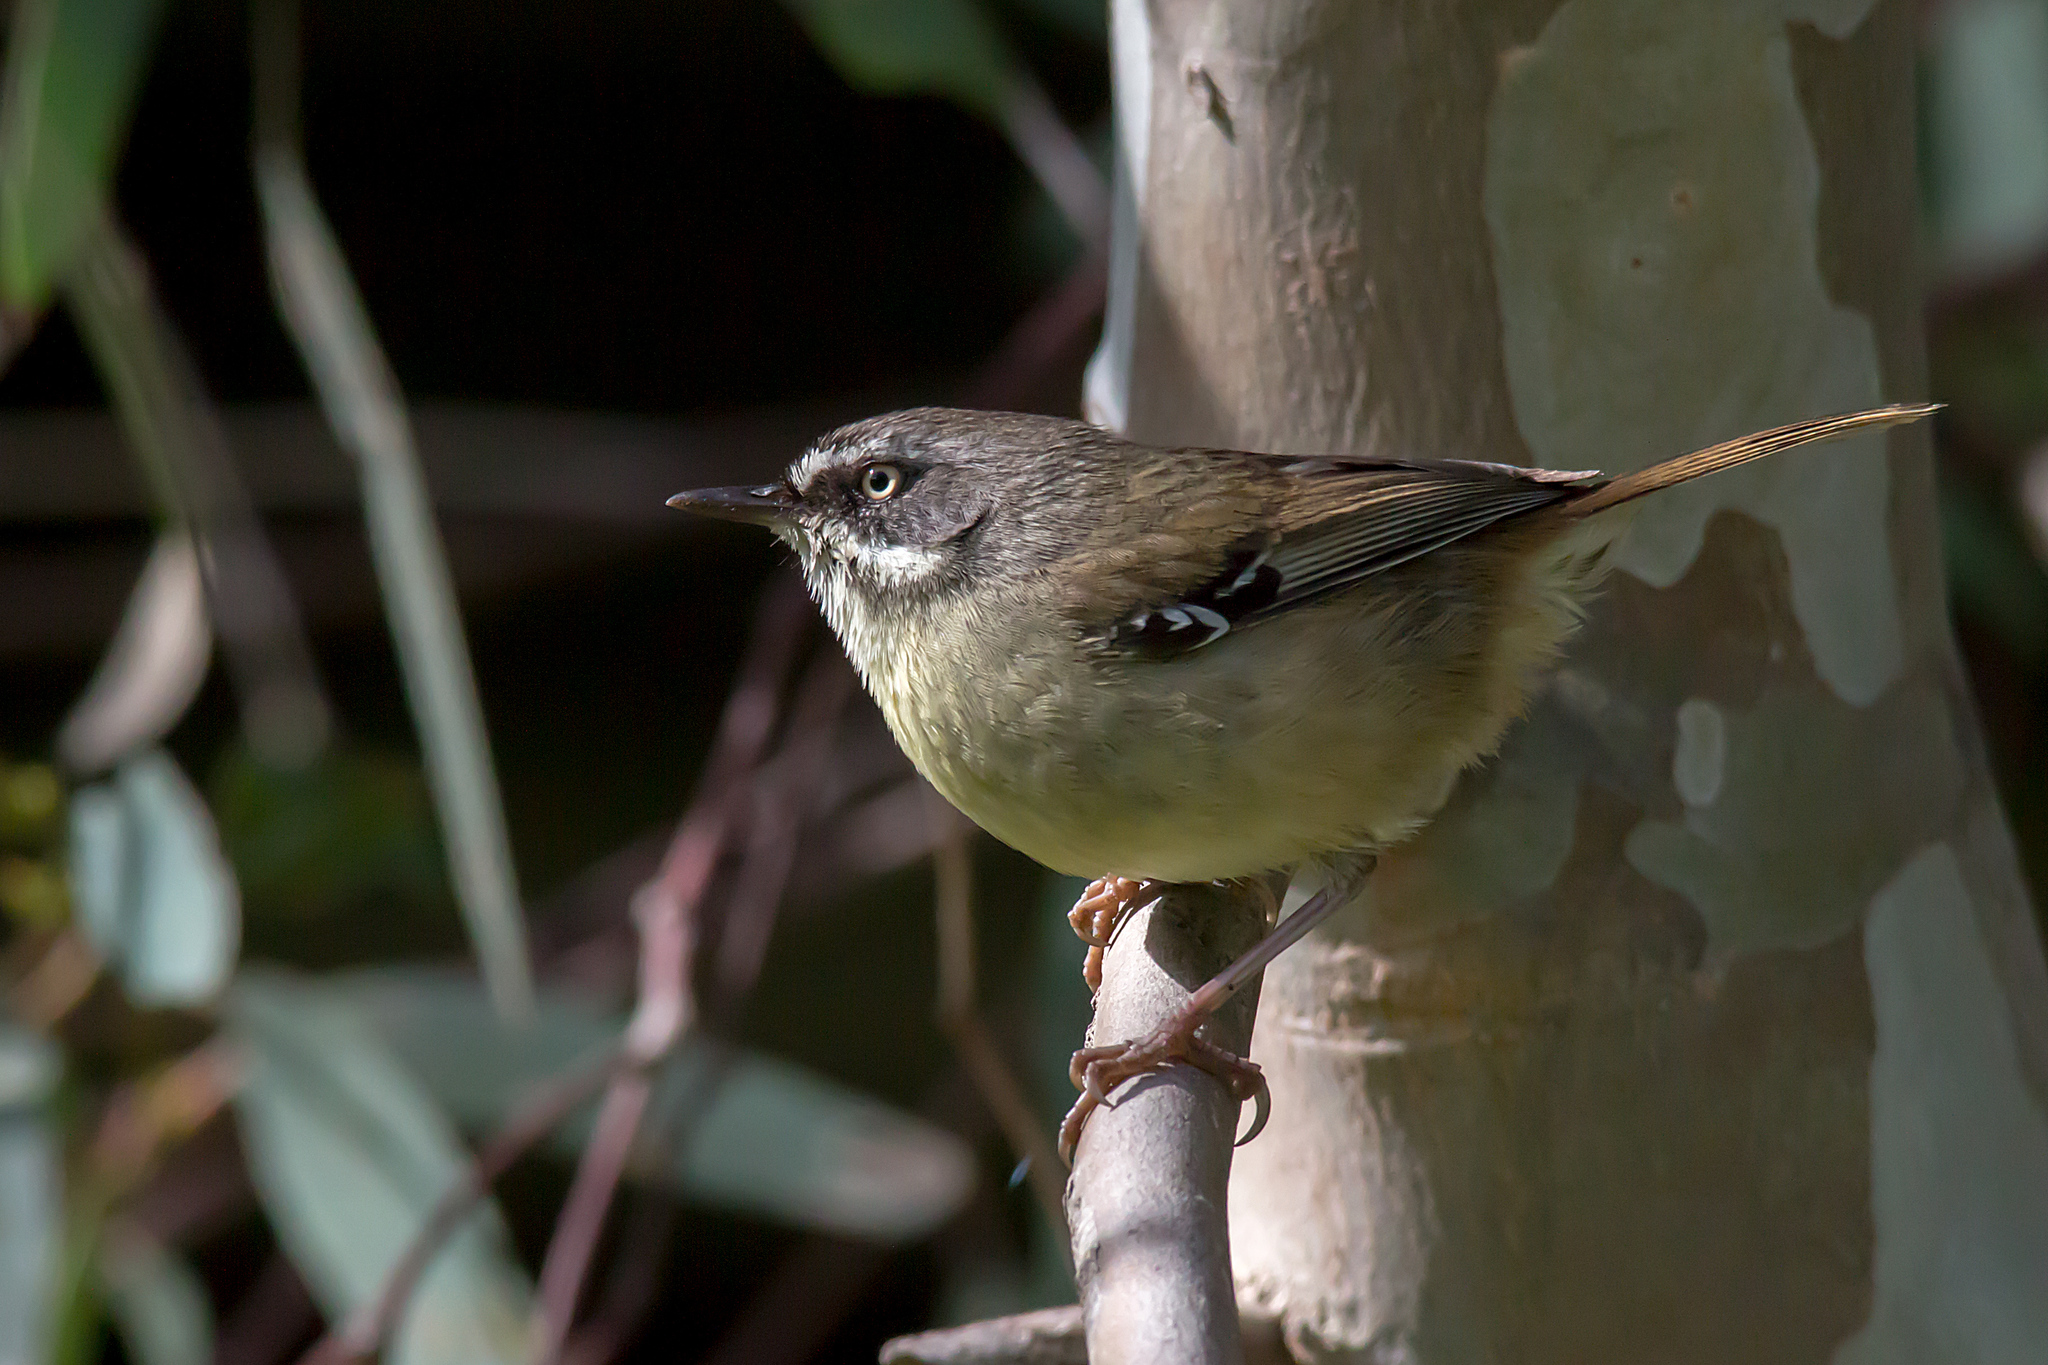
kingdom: Animalia
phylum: Chordata
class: Aves
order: Passeriformes
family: Acanthizidae
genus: Sericornis
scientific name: Sericornis frontalis
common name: White-browed scrubwren
